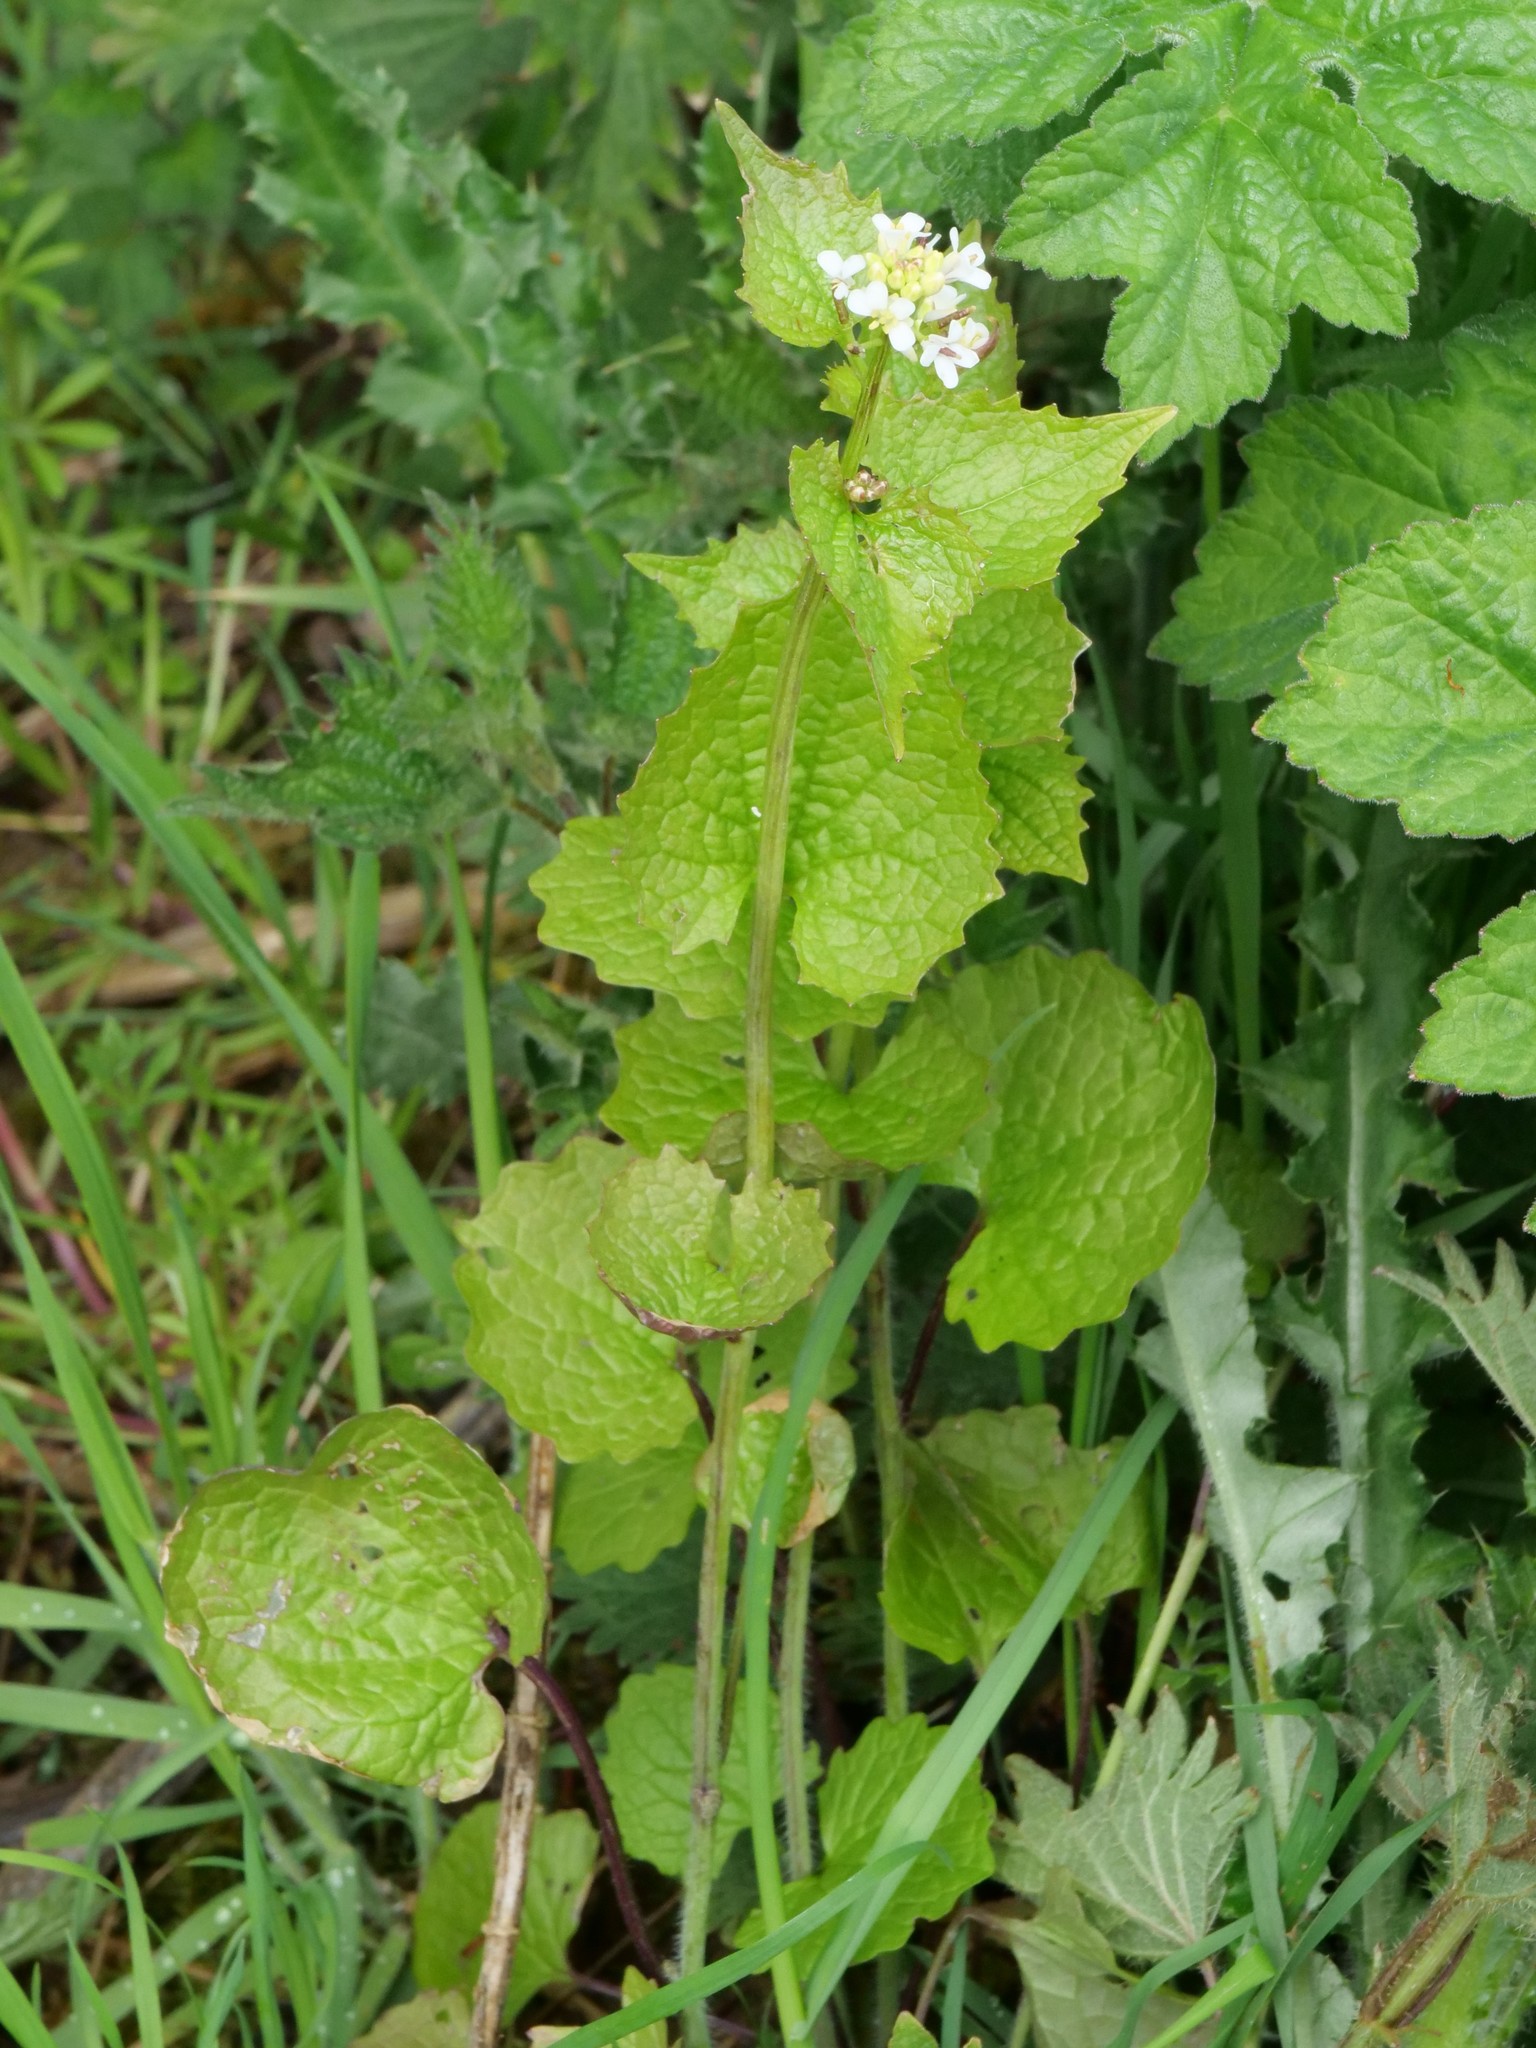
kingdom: Plantae
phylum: Tracheophyta
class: Magnoliopsida
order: Brassicales
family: Brassicaceae
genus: Alliaria
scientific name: Alliaria petiolata
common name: Garlic mustard
